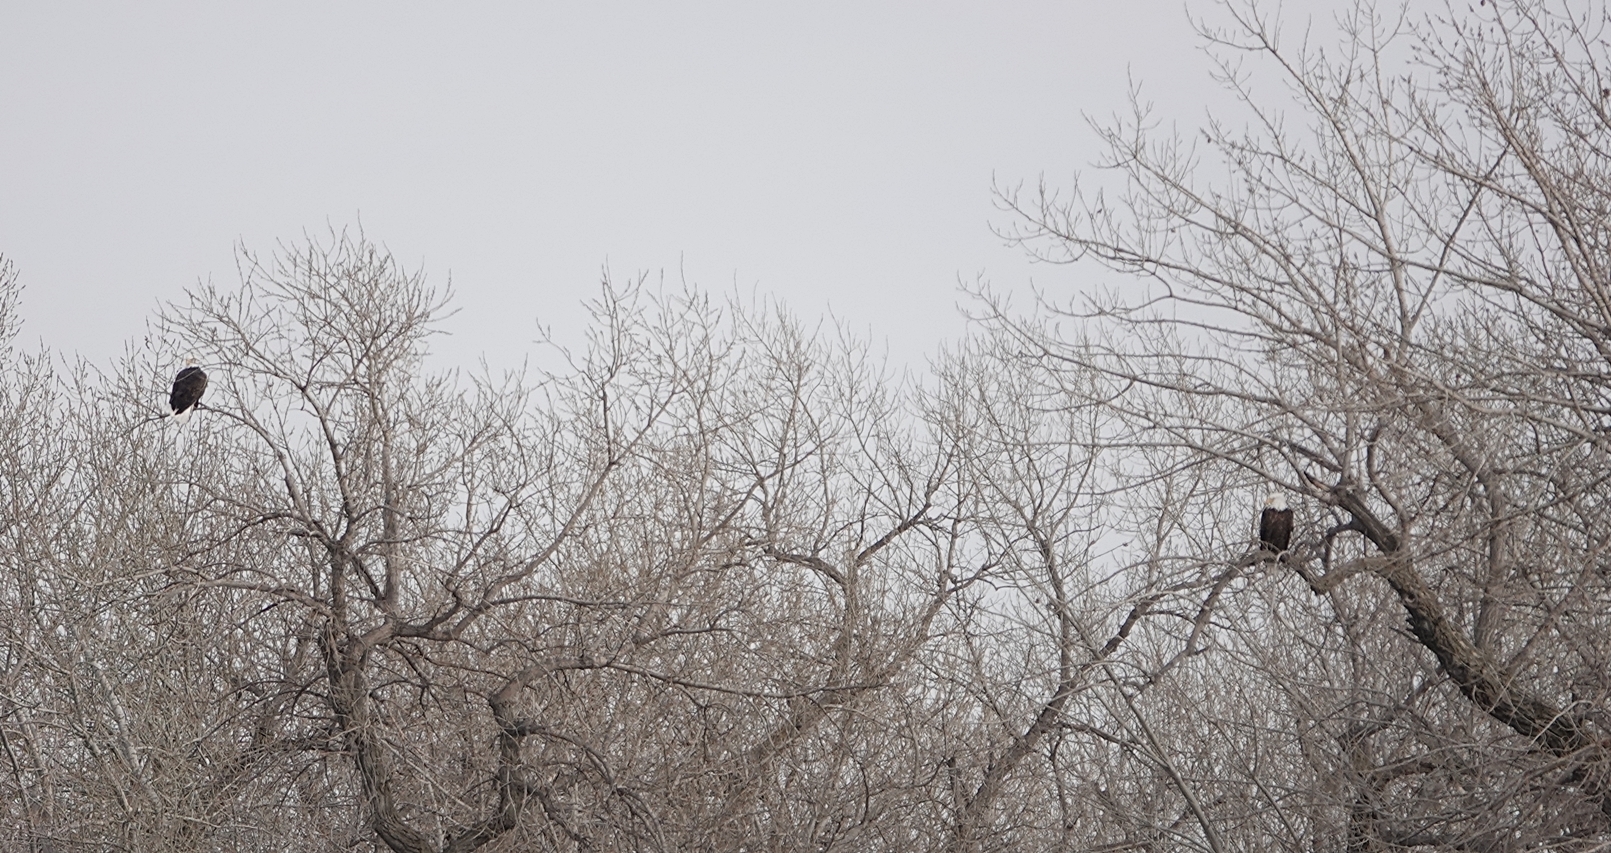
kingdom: Animalia
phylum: Chordata
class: Aves
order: Accipitriformes
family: Accipitridae
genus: Haliaeetus
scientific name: Haliaeetus leucocephalus
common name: Bald eagle
